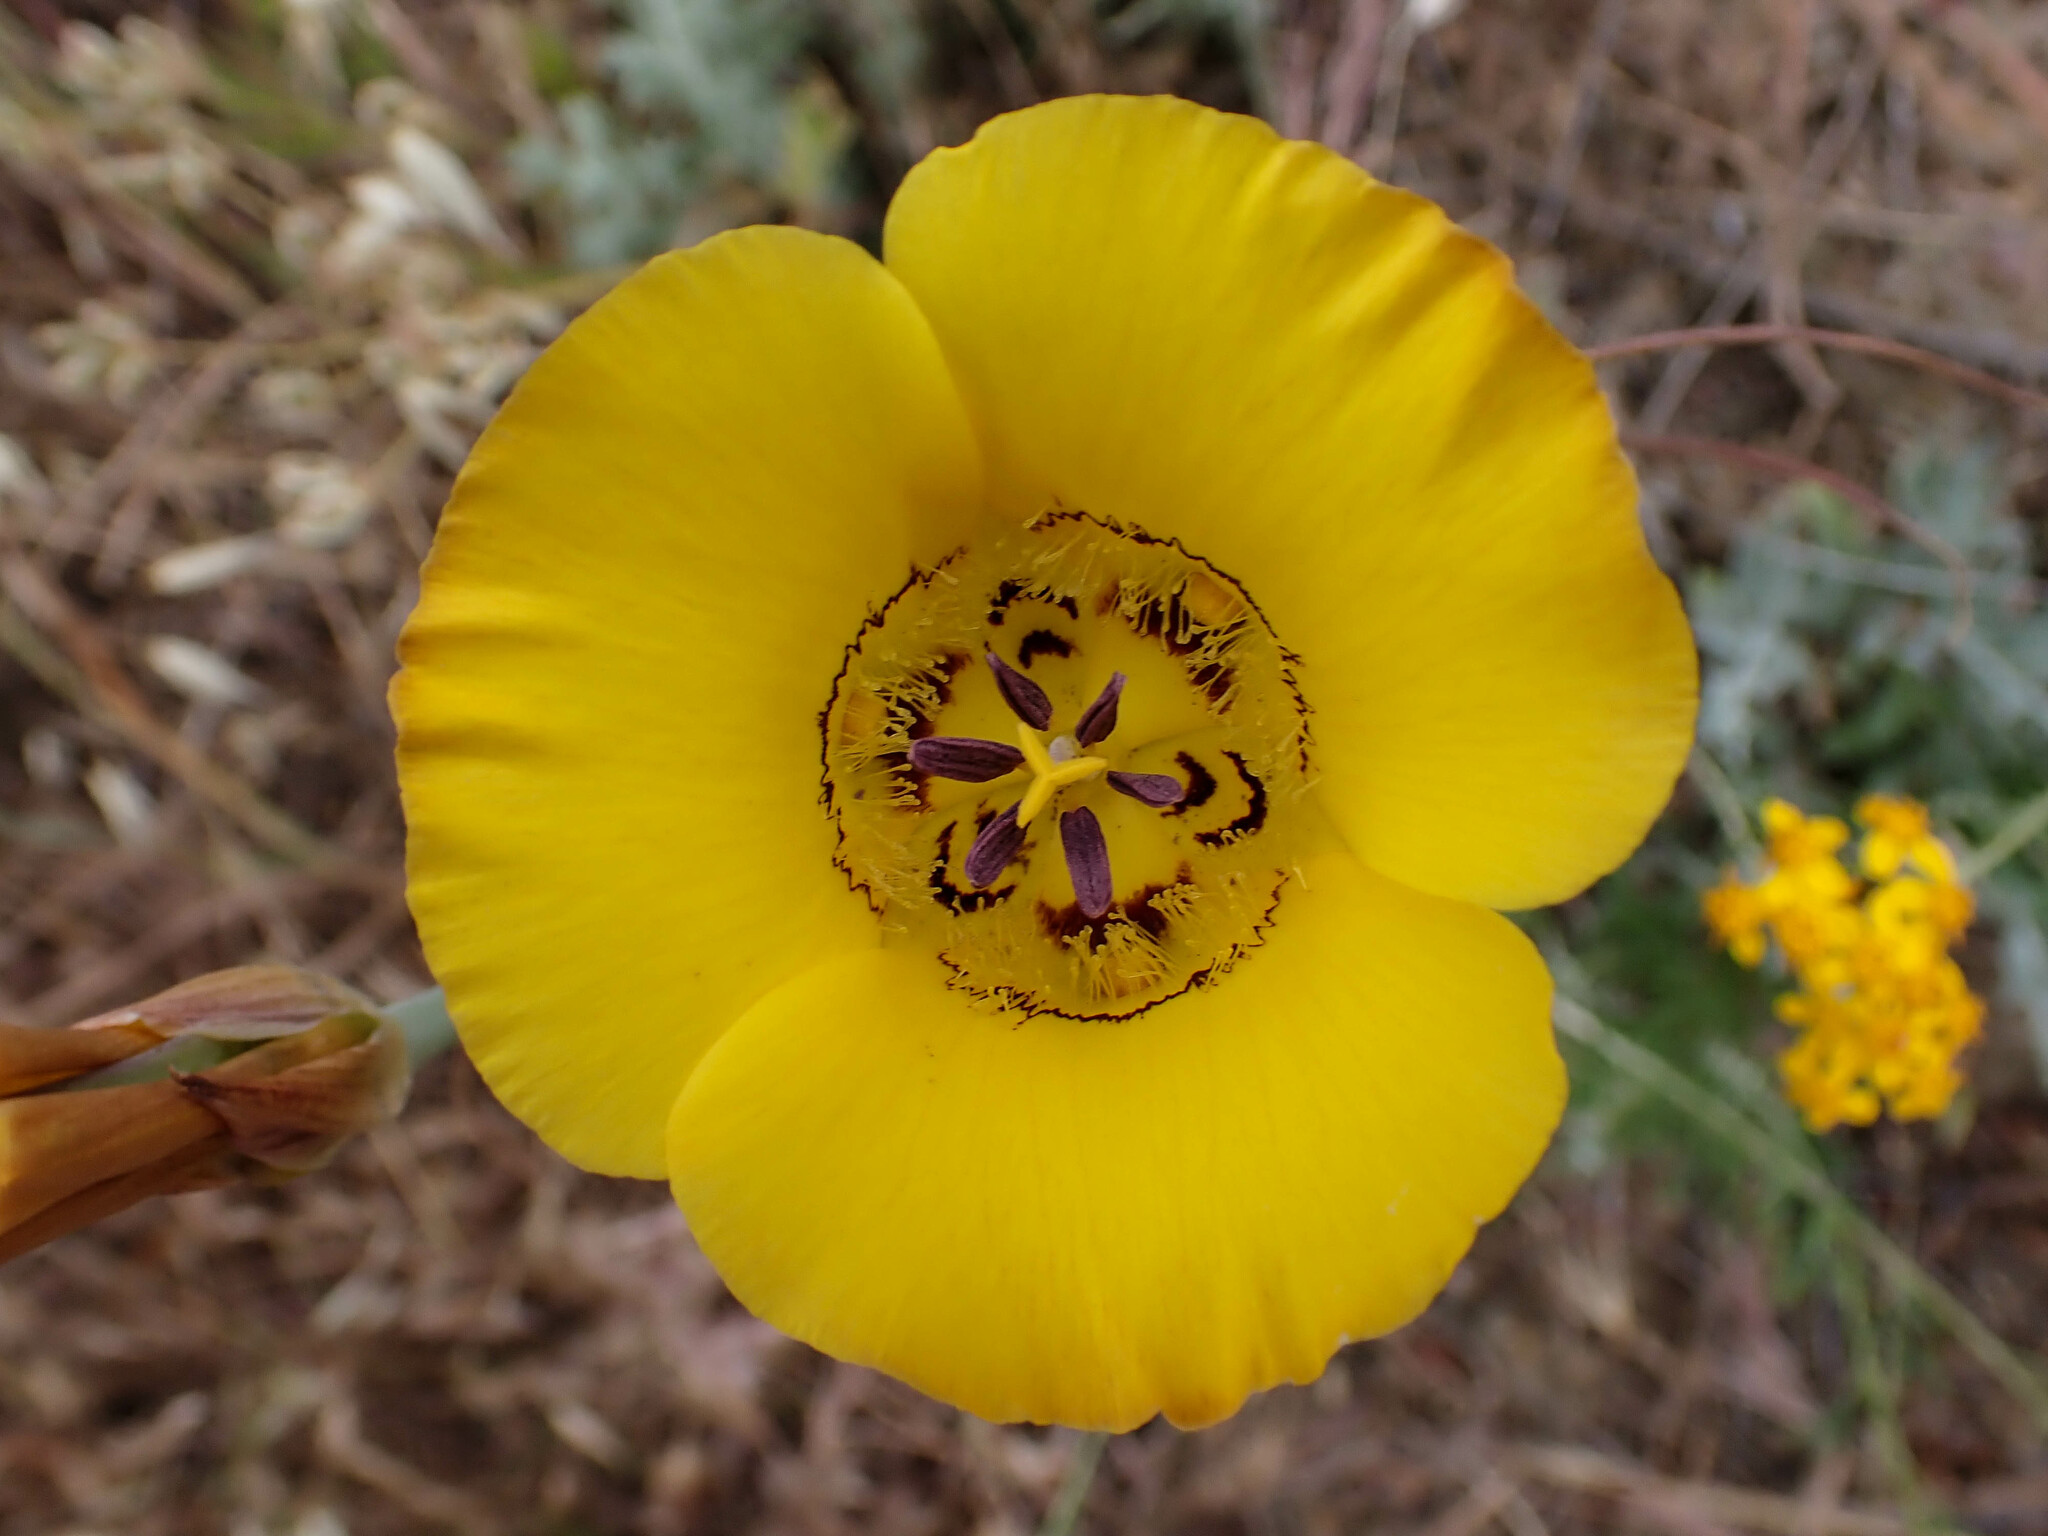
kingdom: Plantae
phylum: Tracheophyta
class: Liliopsida
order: Liliales
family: Liliaceae
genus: Calochortus
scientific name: Calochortus clavatus
